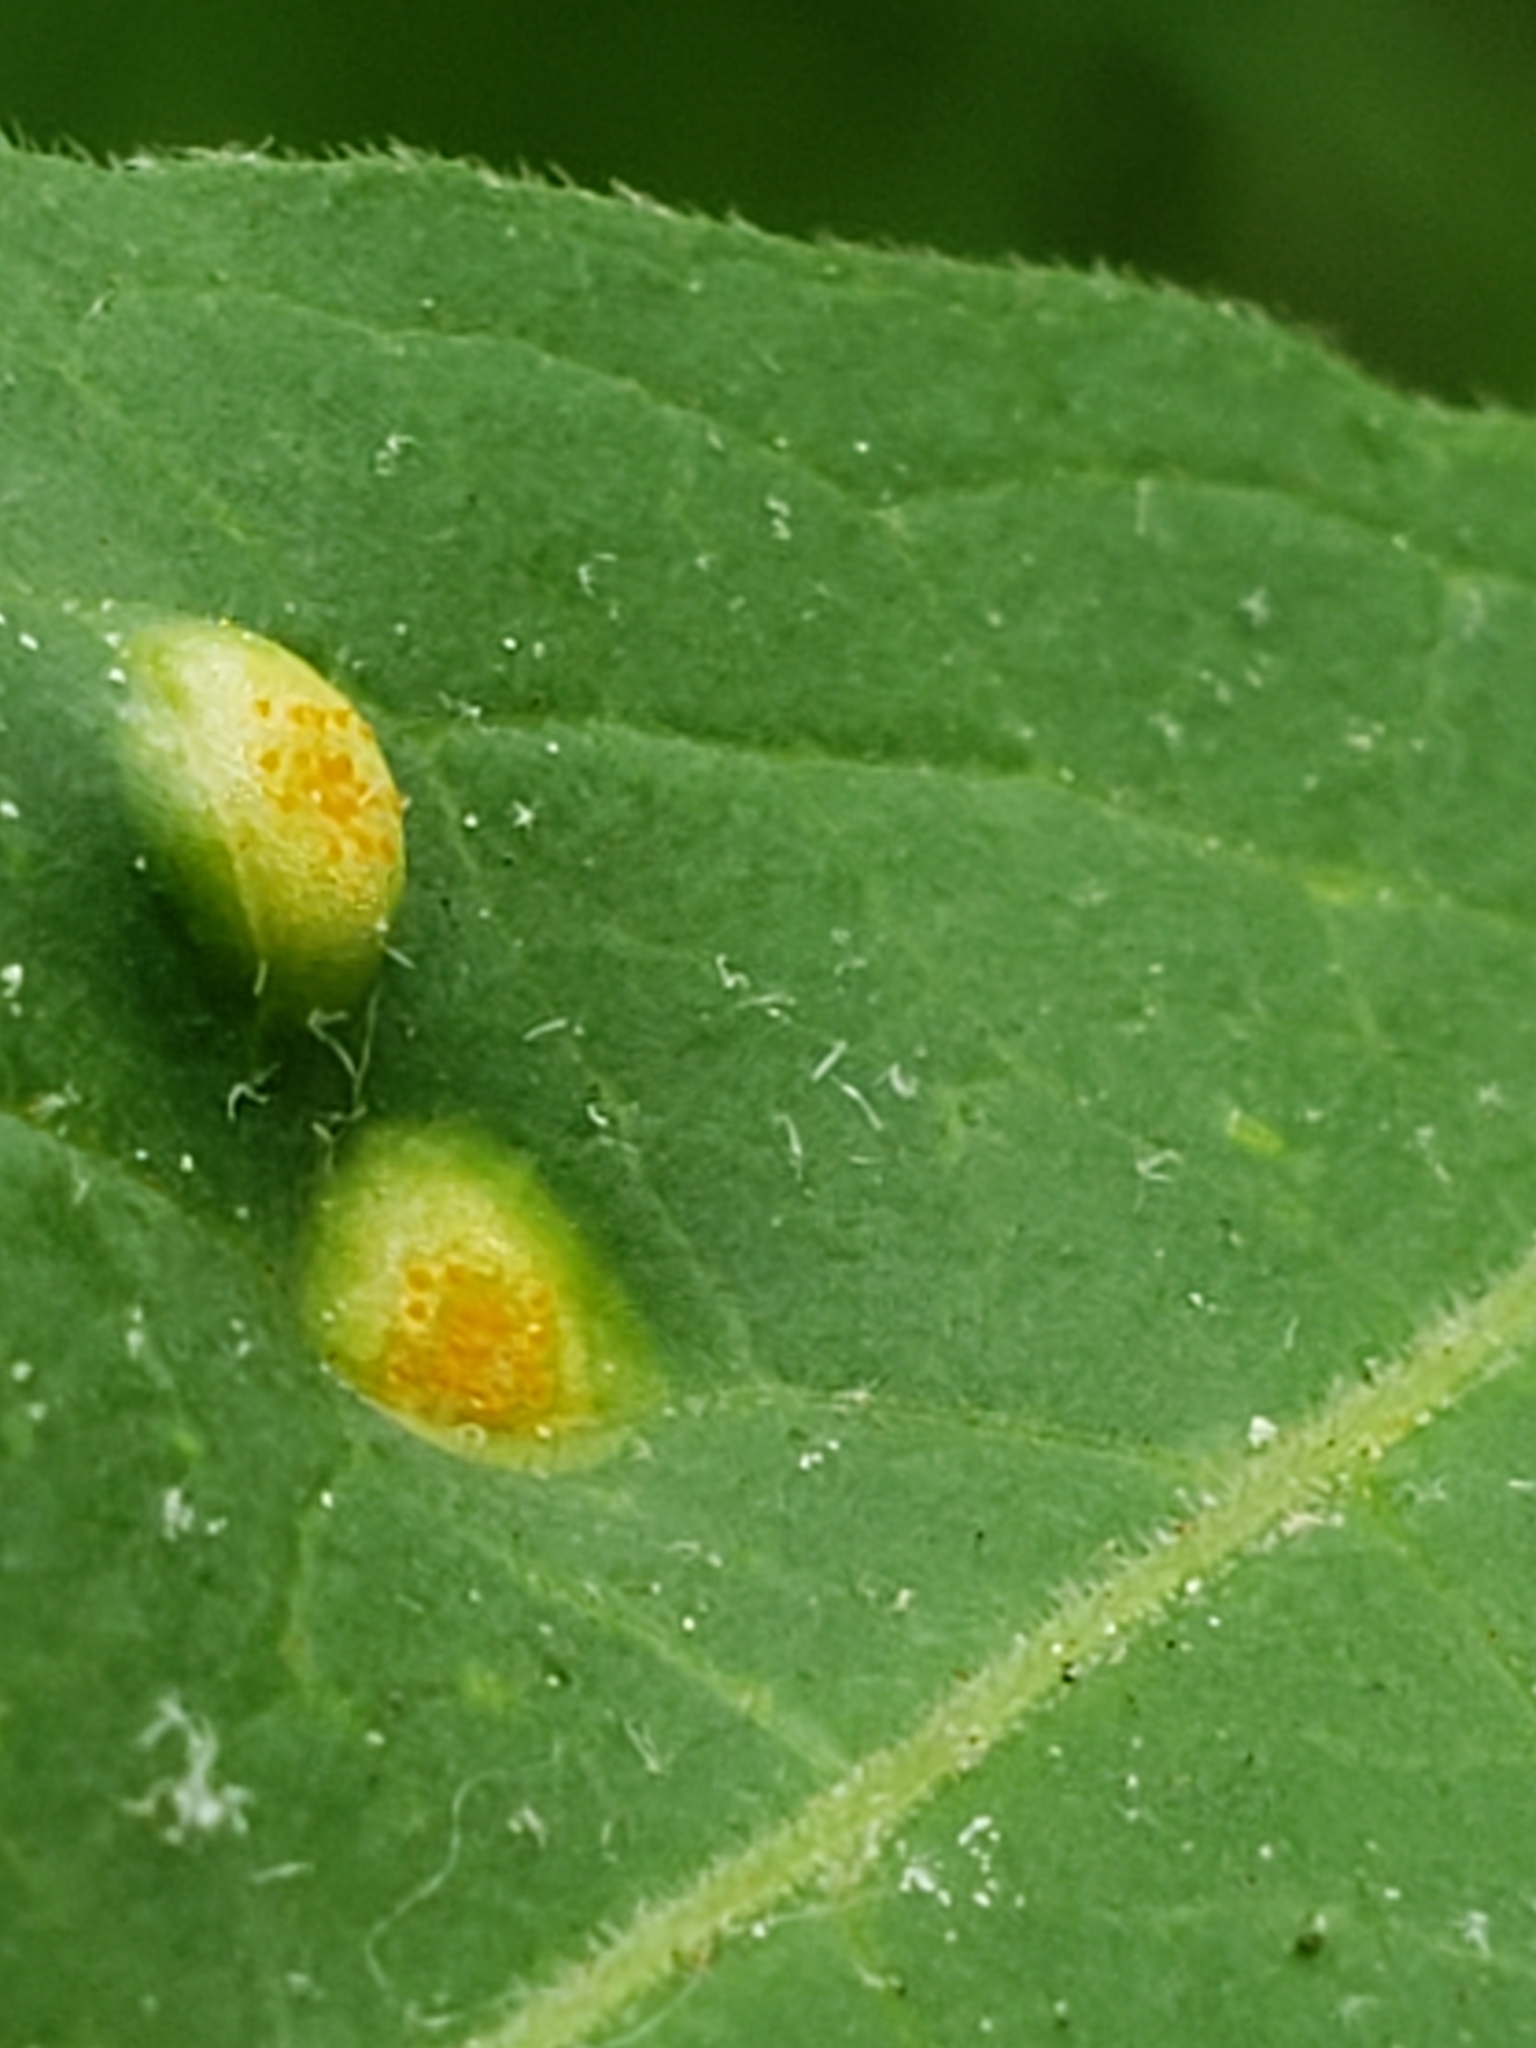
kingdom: Fungi
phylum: Basidiomycota
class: Pucciniomycetes
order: Pucciniales
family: Pucciniaceae
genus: Puccinia
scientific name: Puccinia
